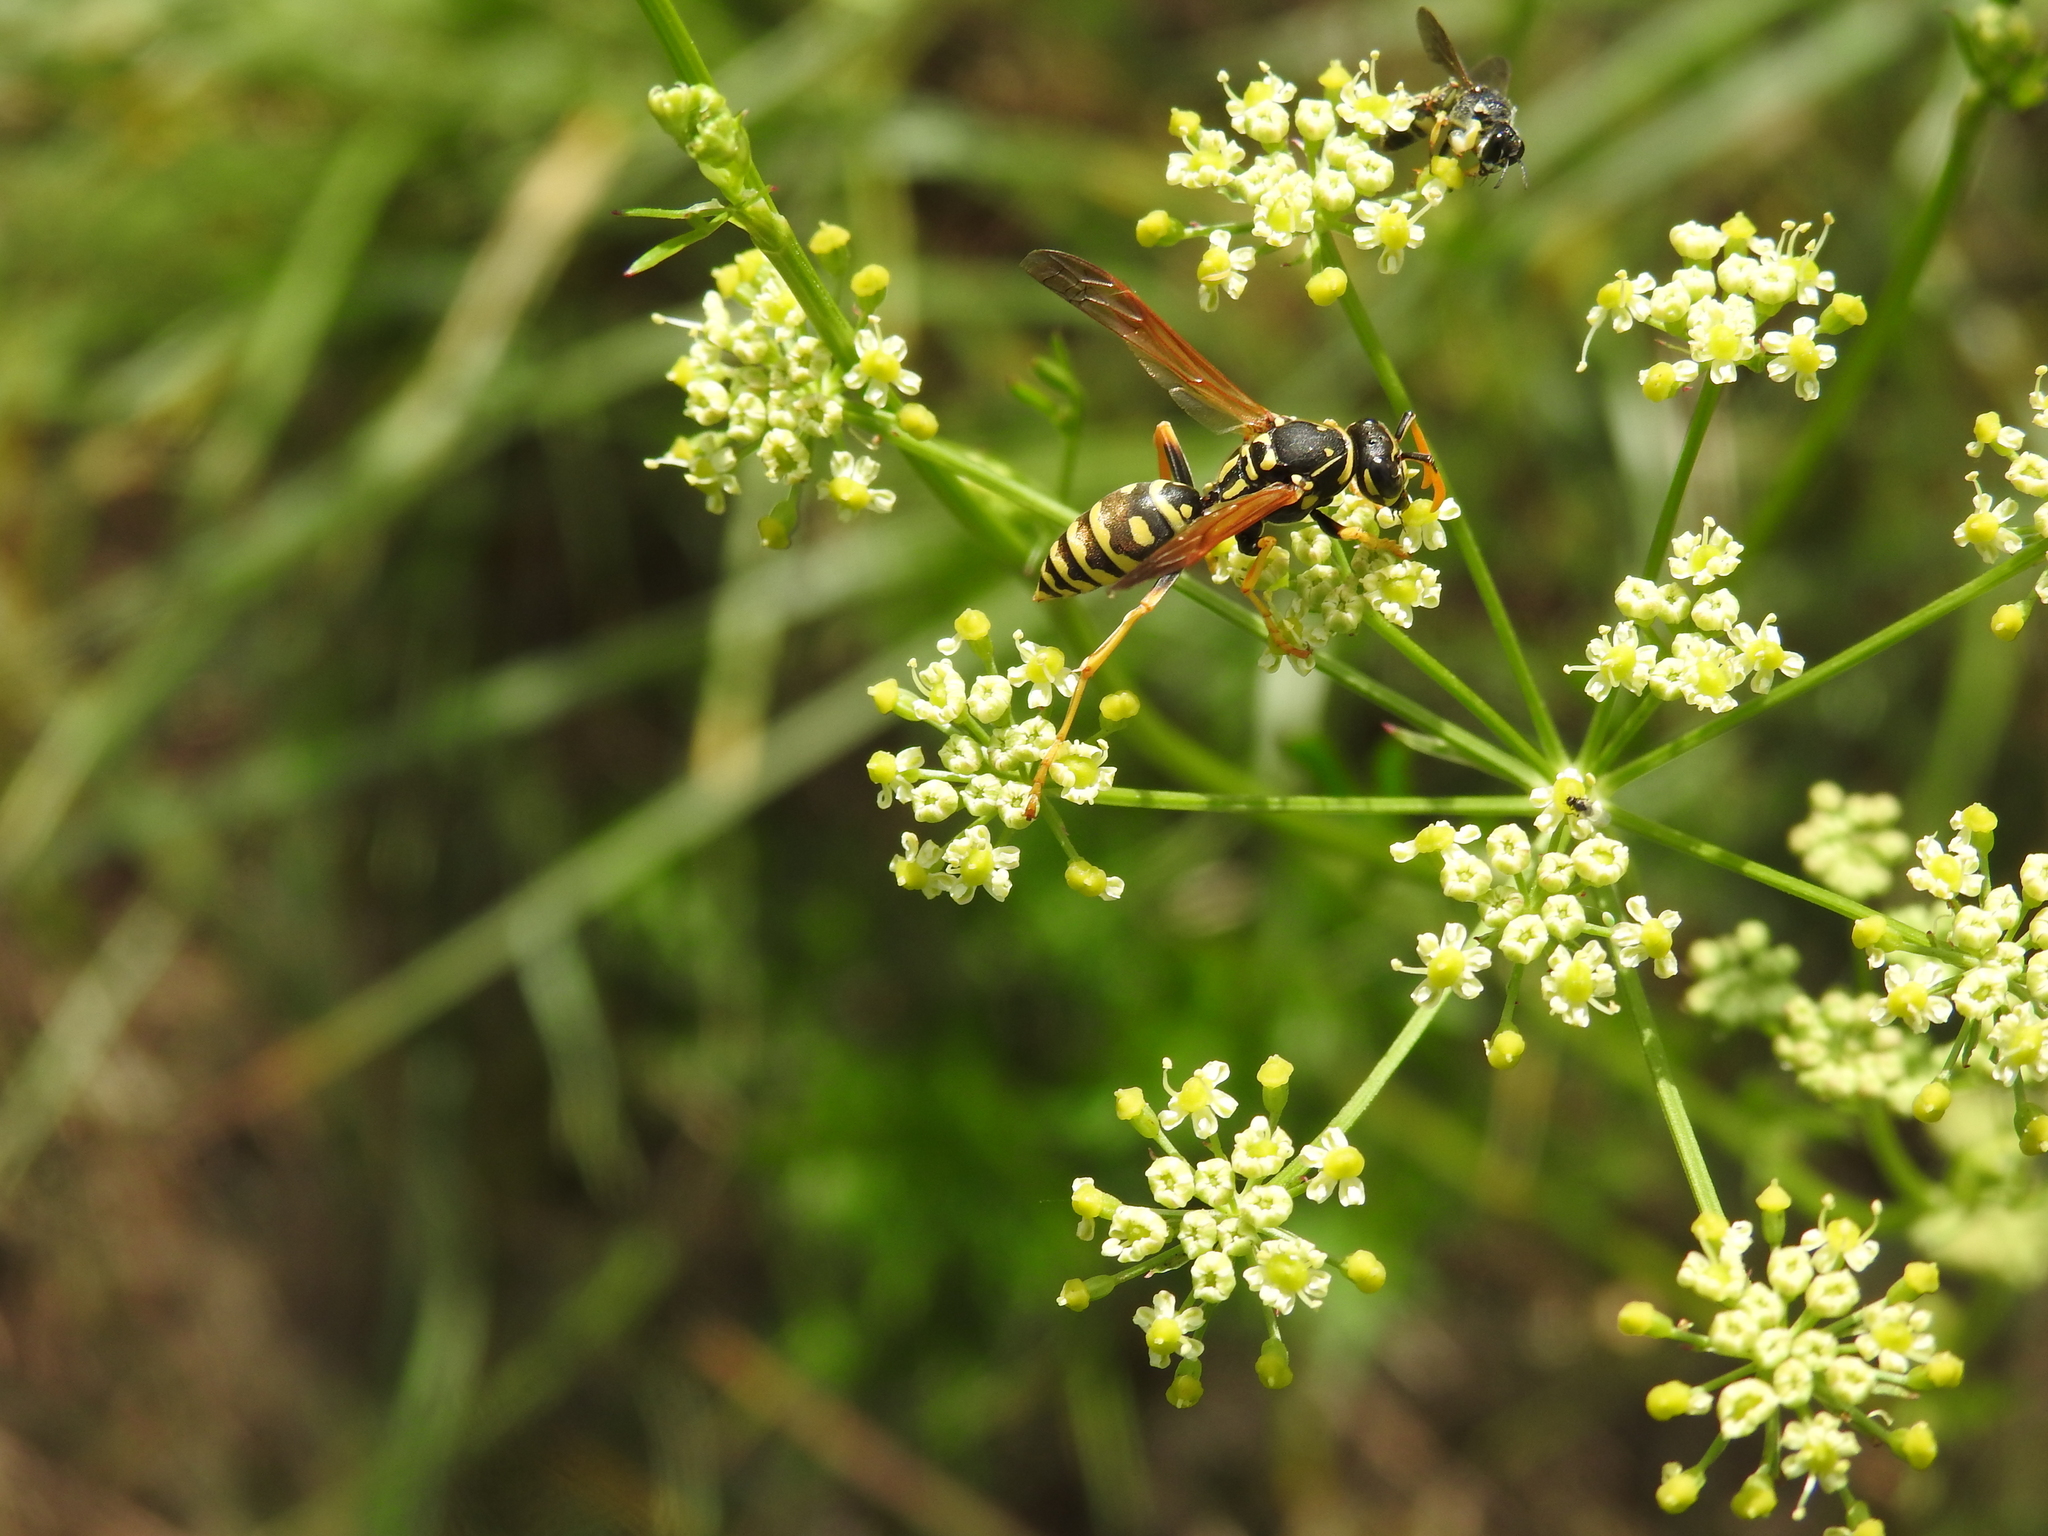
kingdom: Animalia
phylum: Arthropoda
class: Insecta
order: Hymenoptera
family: Eumenidae
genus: Polistes
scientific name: Polistes dominula
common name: Paper wasp
